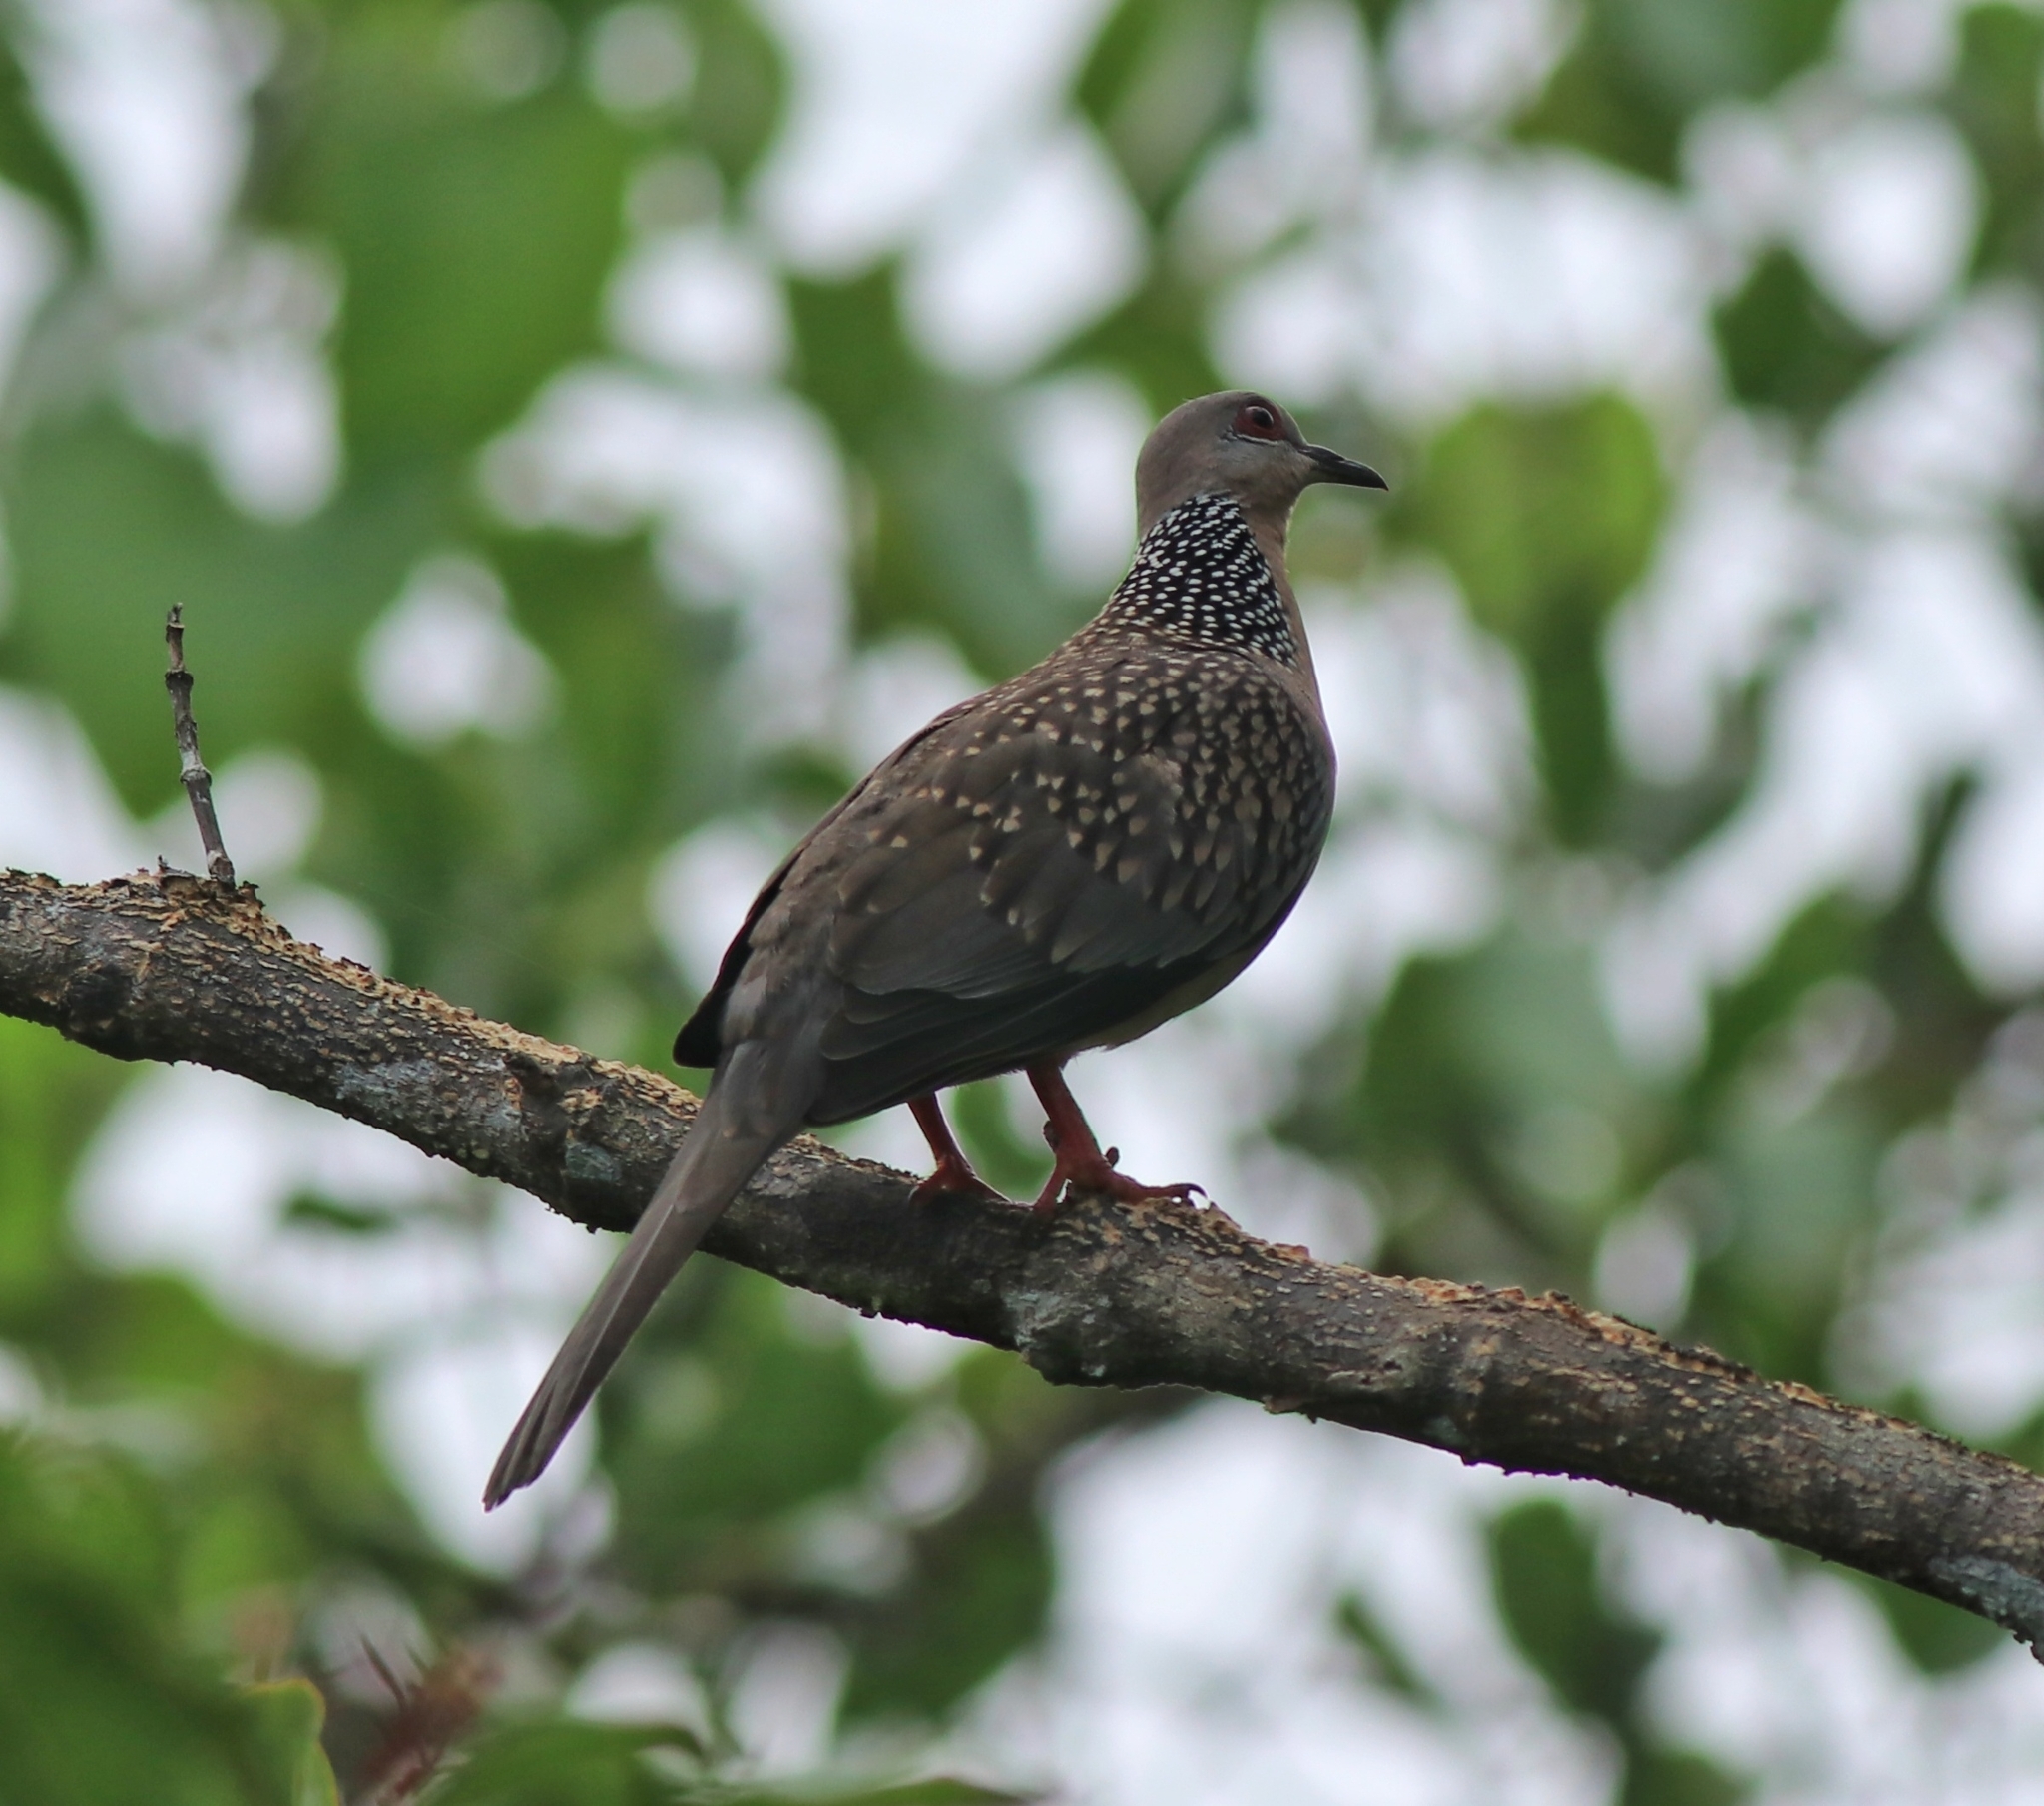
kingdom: Animalia
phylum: Chordata
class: Aves
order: Columbiformes
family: Columbidae
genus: Spilopelia
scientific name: Spilopelia chinensis
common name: Spotted dove
